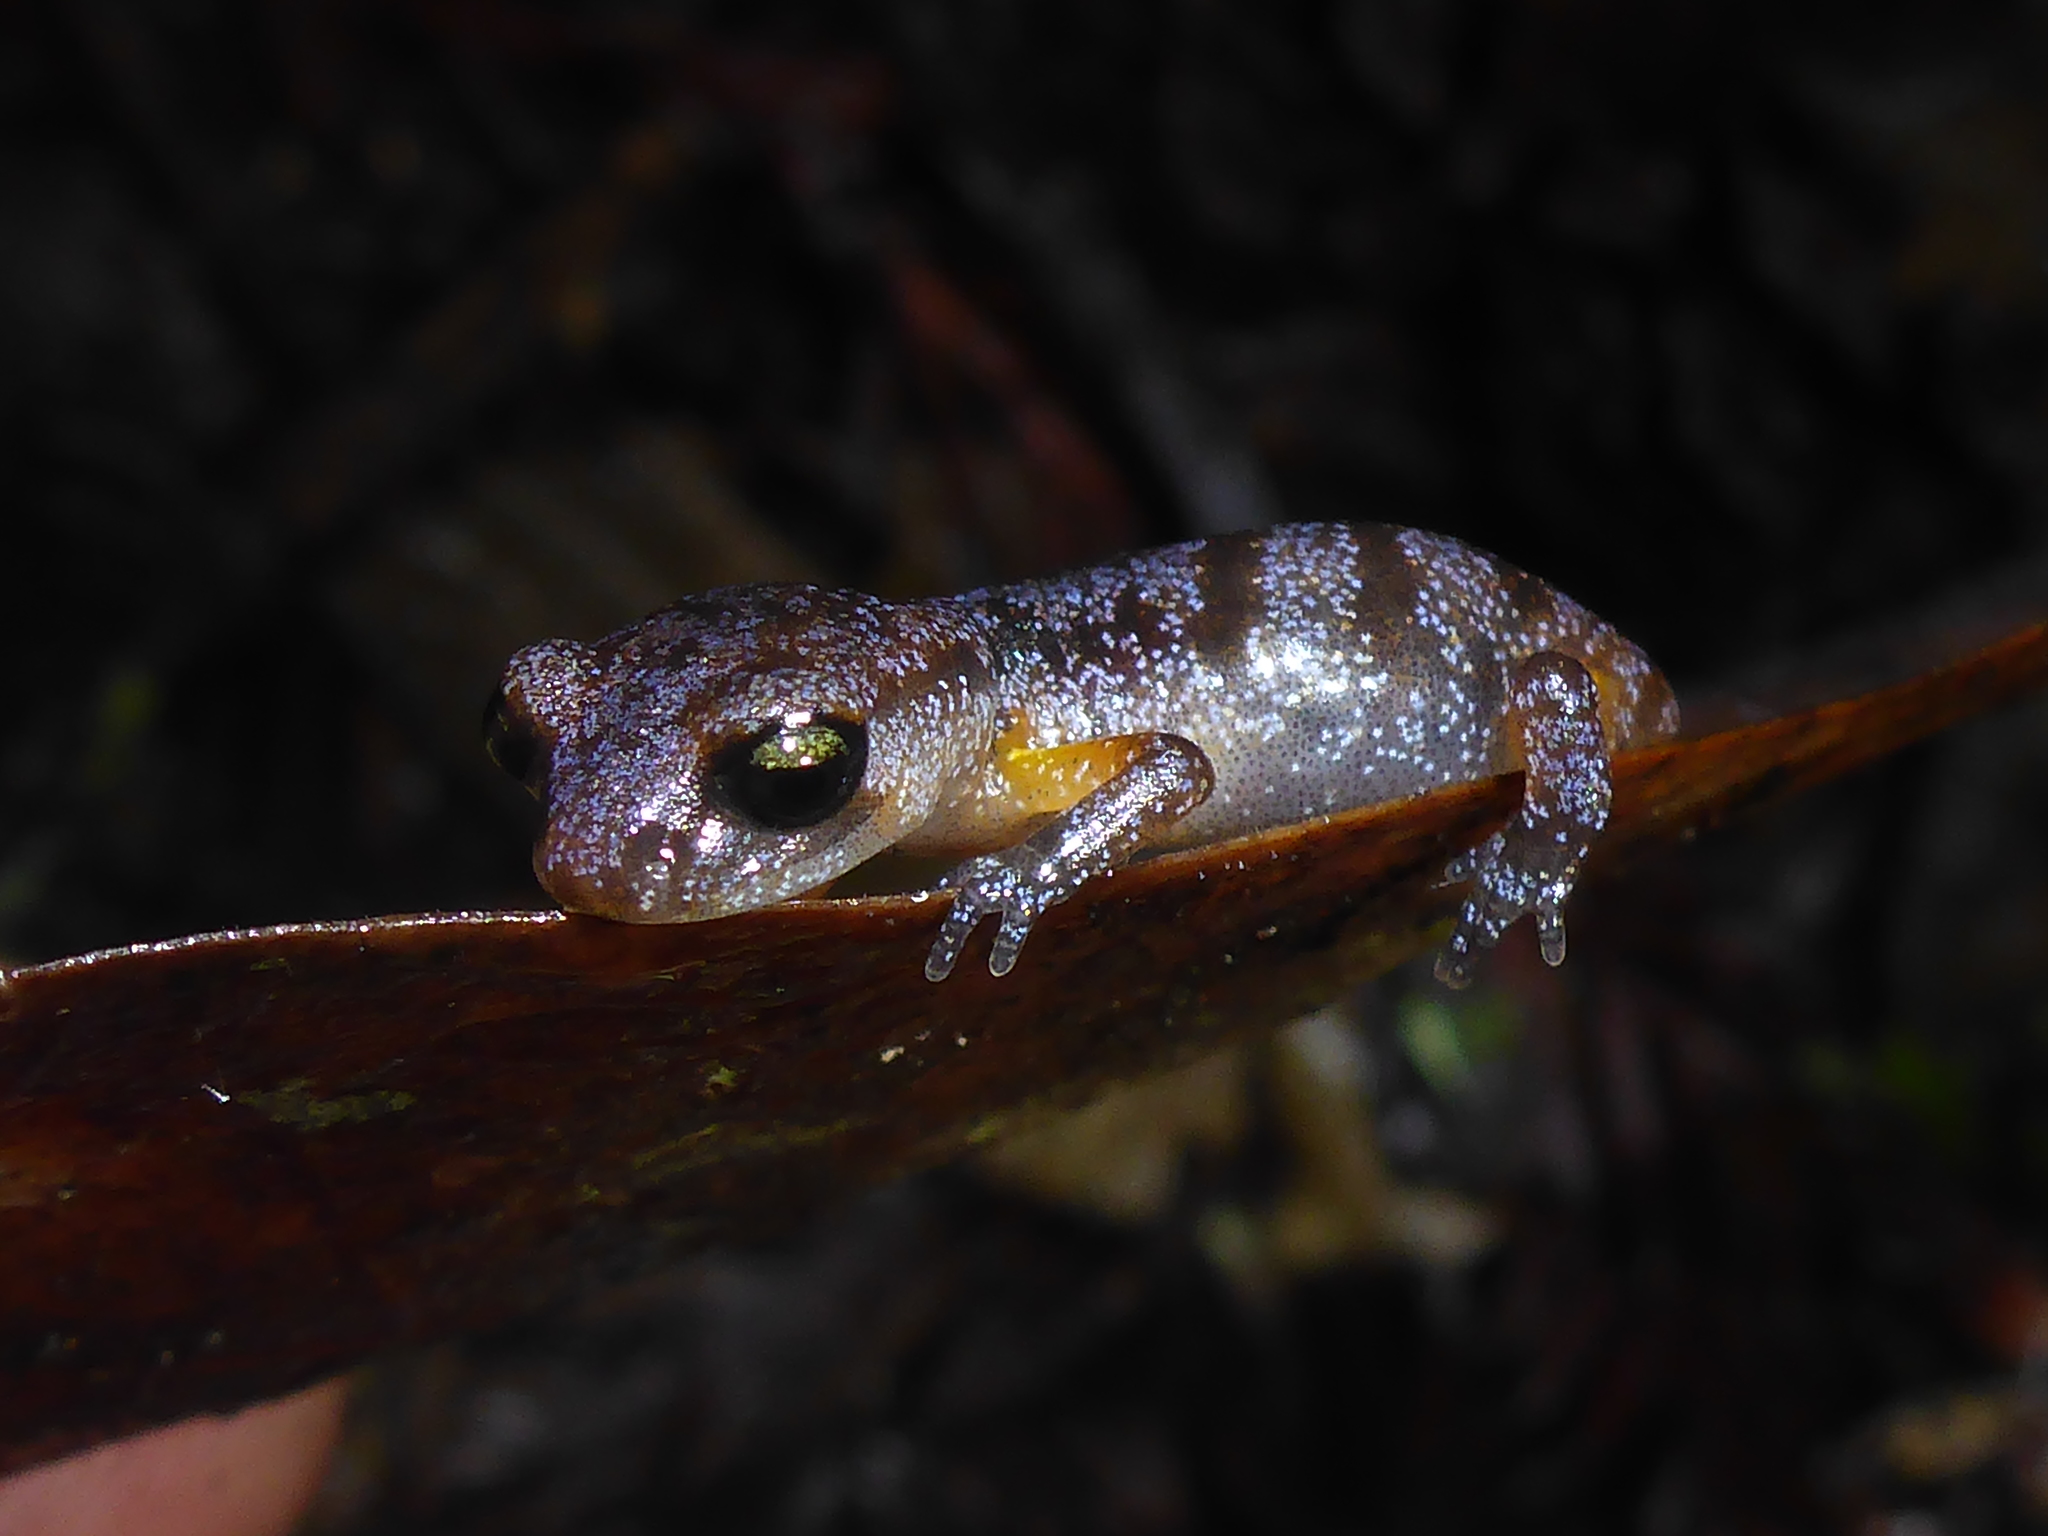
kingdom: Animalia
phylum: Chordata
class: Amphibia
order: Caudata
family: Plethodontidae
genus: Ensatina
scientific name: Ensatina eschscholtzii
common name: Ensatina
